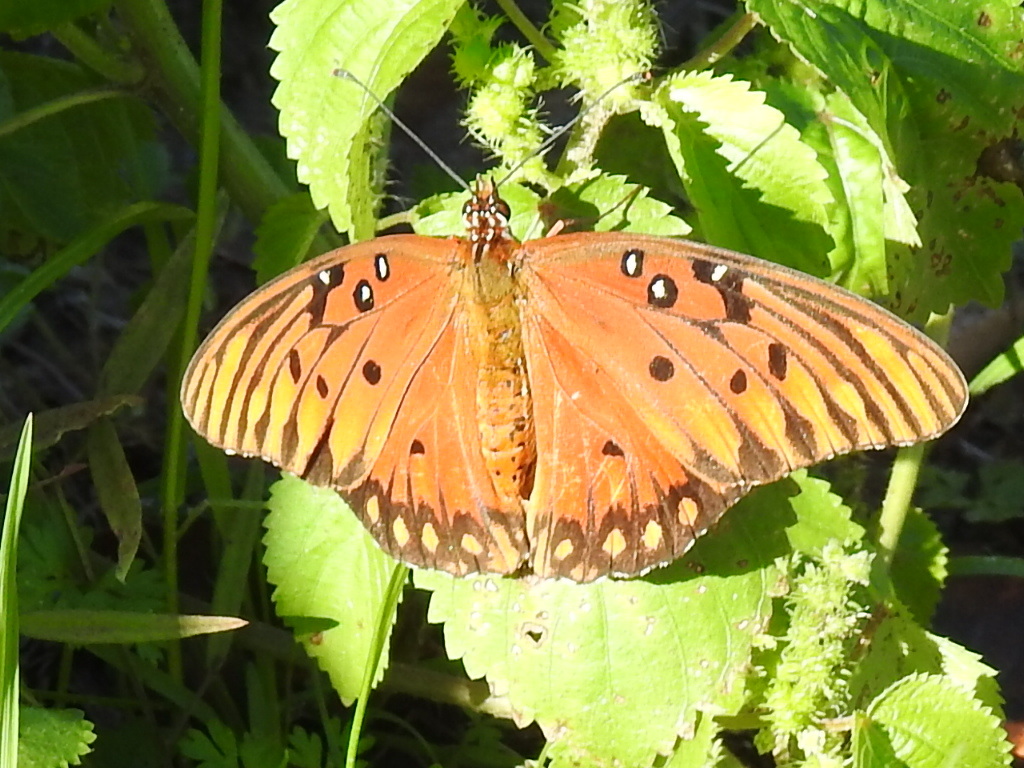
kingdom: Animalia
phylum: Arthropoda
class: Insecta
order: Lepidoptera
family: Nymphalidae
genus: Dione
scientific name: Dione vanillae
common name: Gulf fritillary
